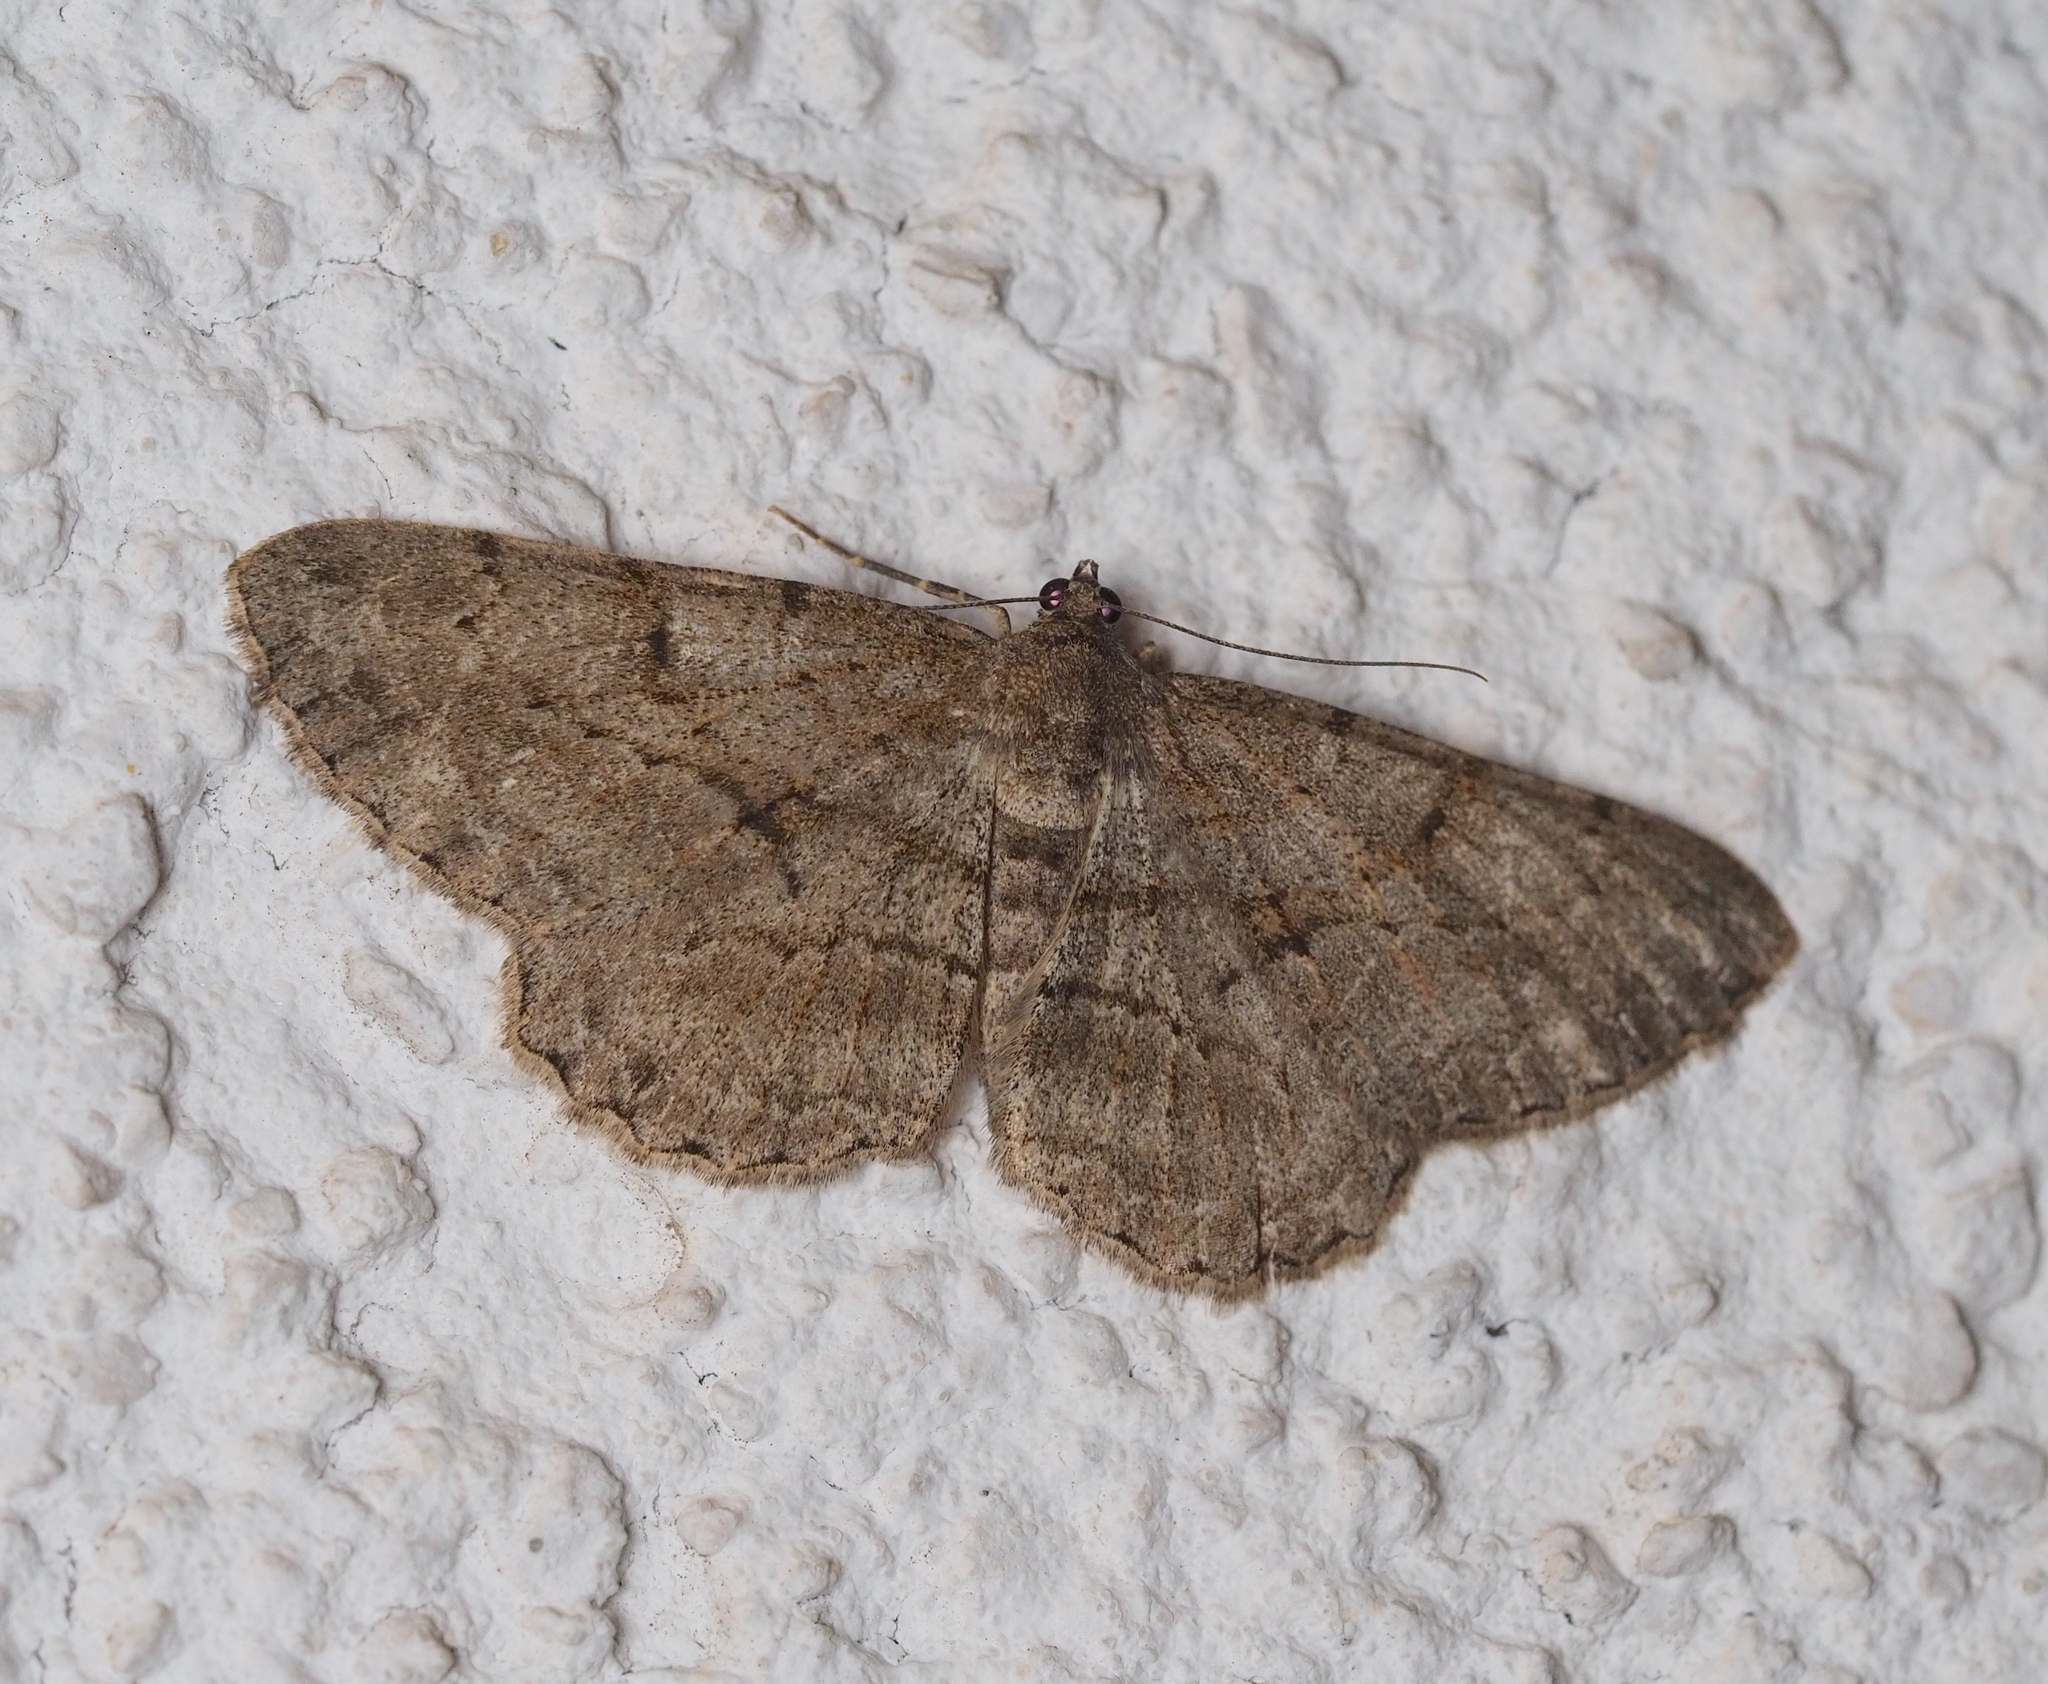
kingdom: Animalia
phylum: Arthropoda
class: Insecta
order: Lepidoptera
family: Geometridae
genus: Peribatodes
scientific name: Peribatodes rhomboidaria
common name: Willow beauty
